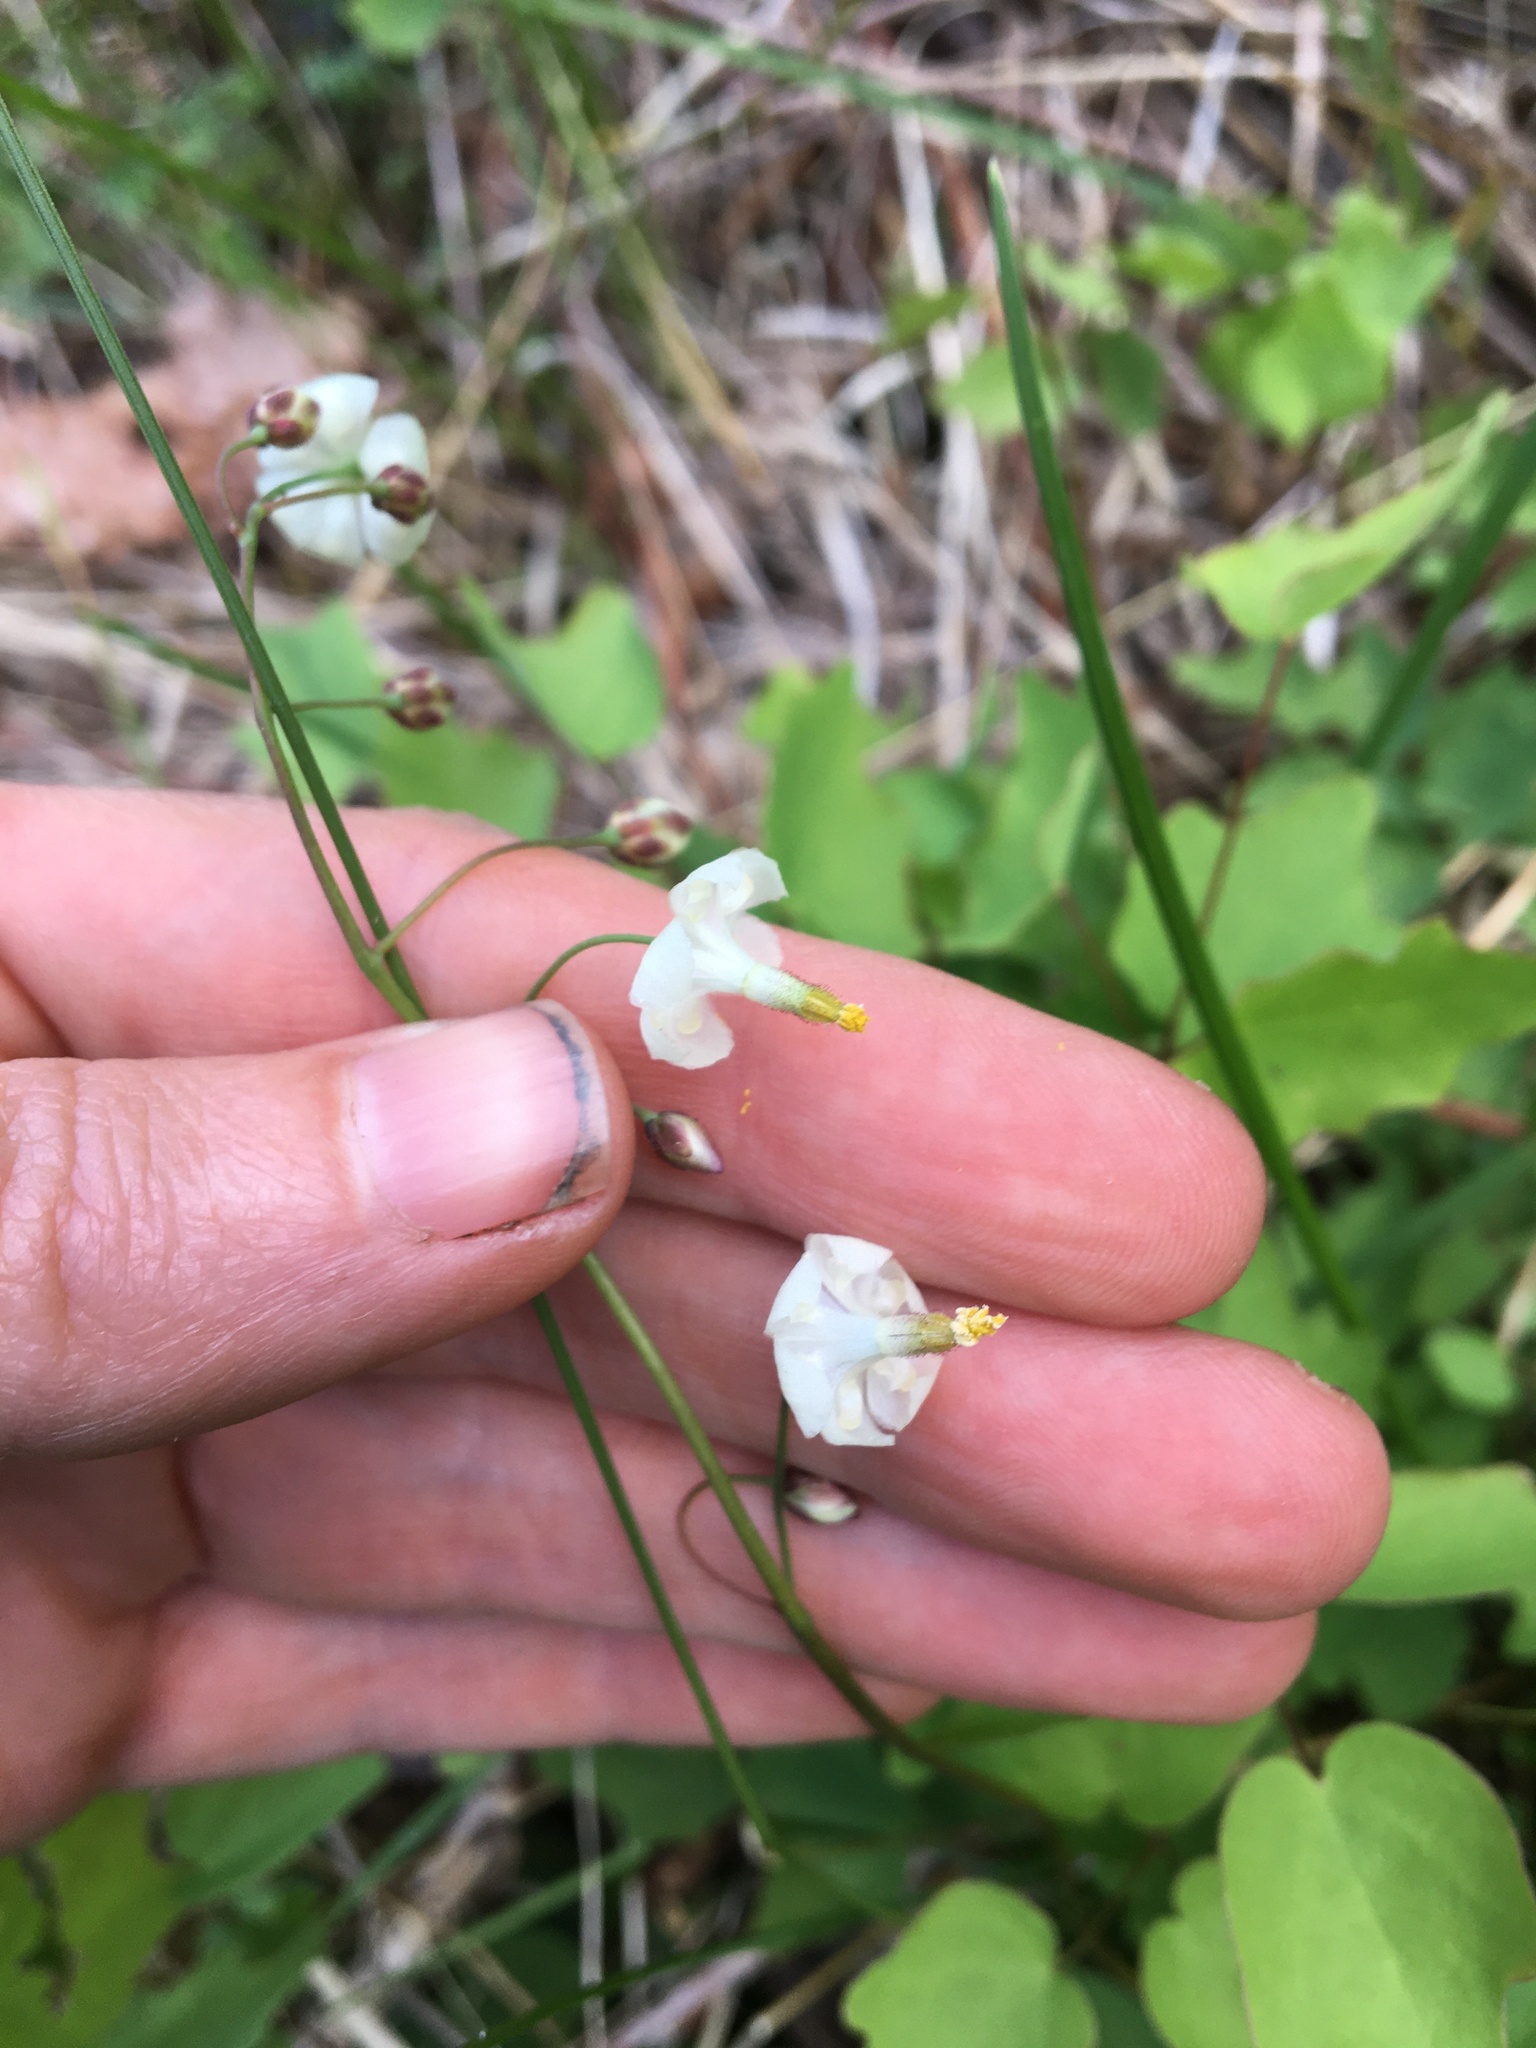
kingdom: Plantae
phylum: Tracheophyta
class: Magnoliopsida
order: Ranunculales
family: Berberidaceae
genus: Vancouveria
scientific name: Vancouveria hexandra
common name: Northern inside-out-flower
